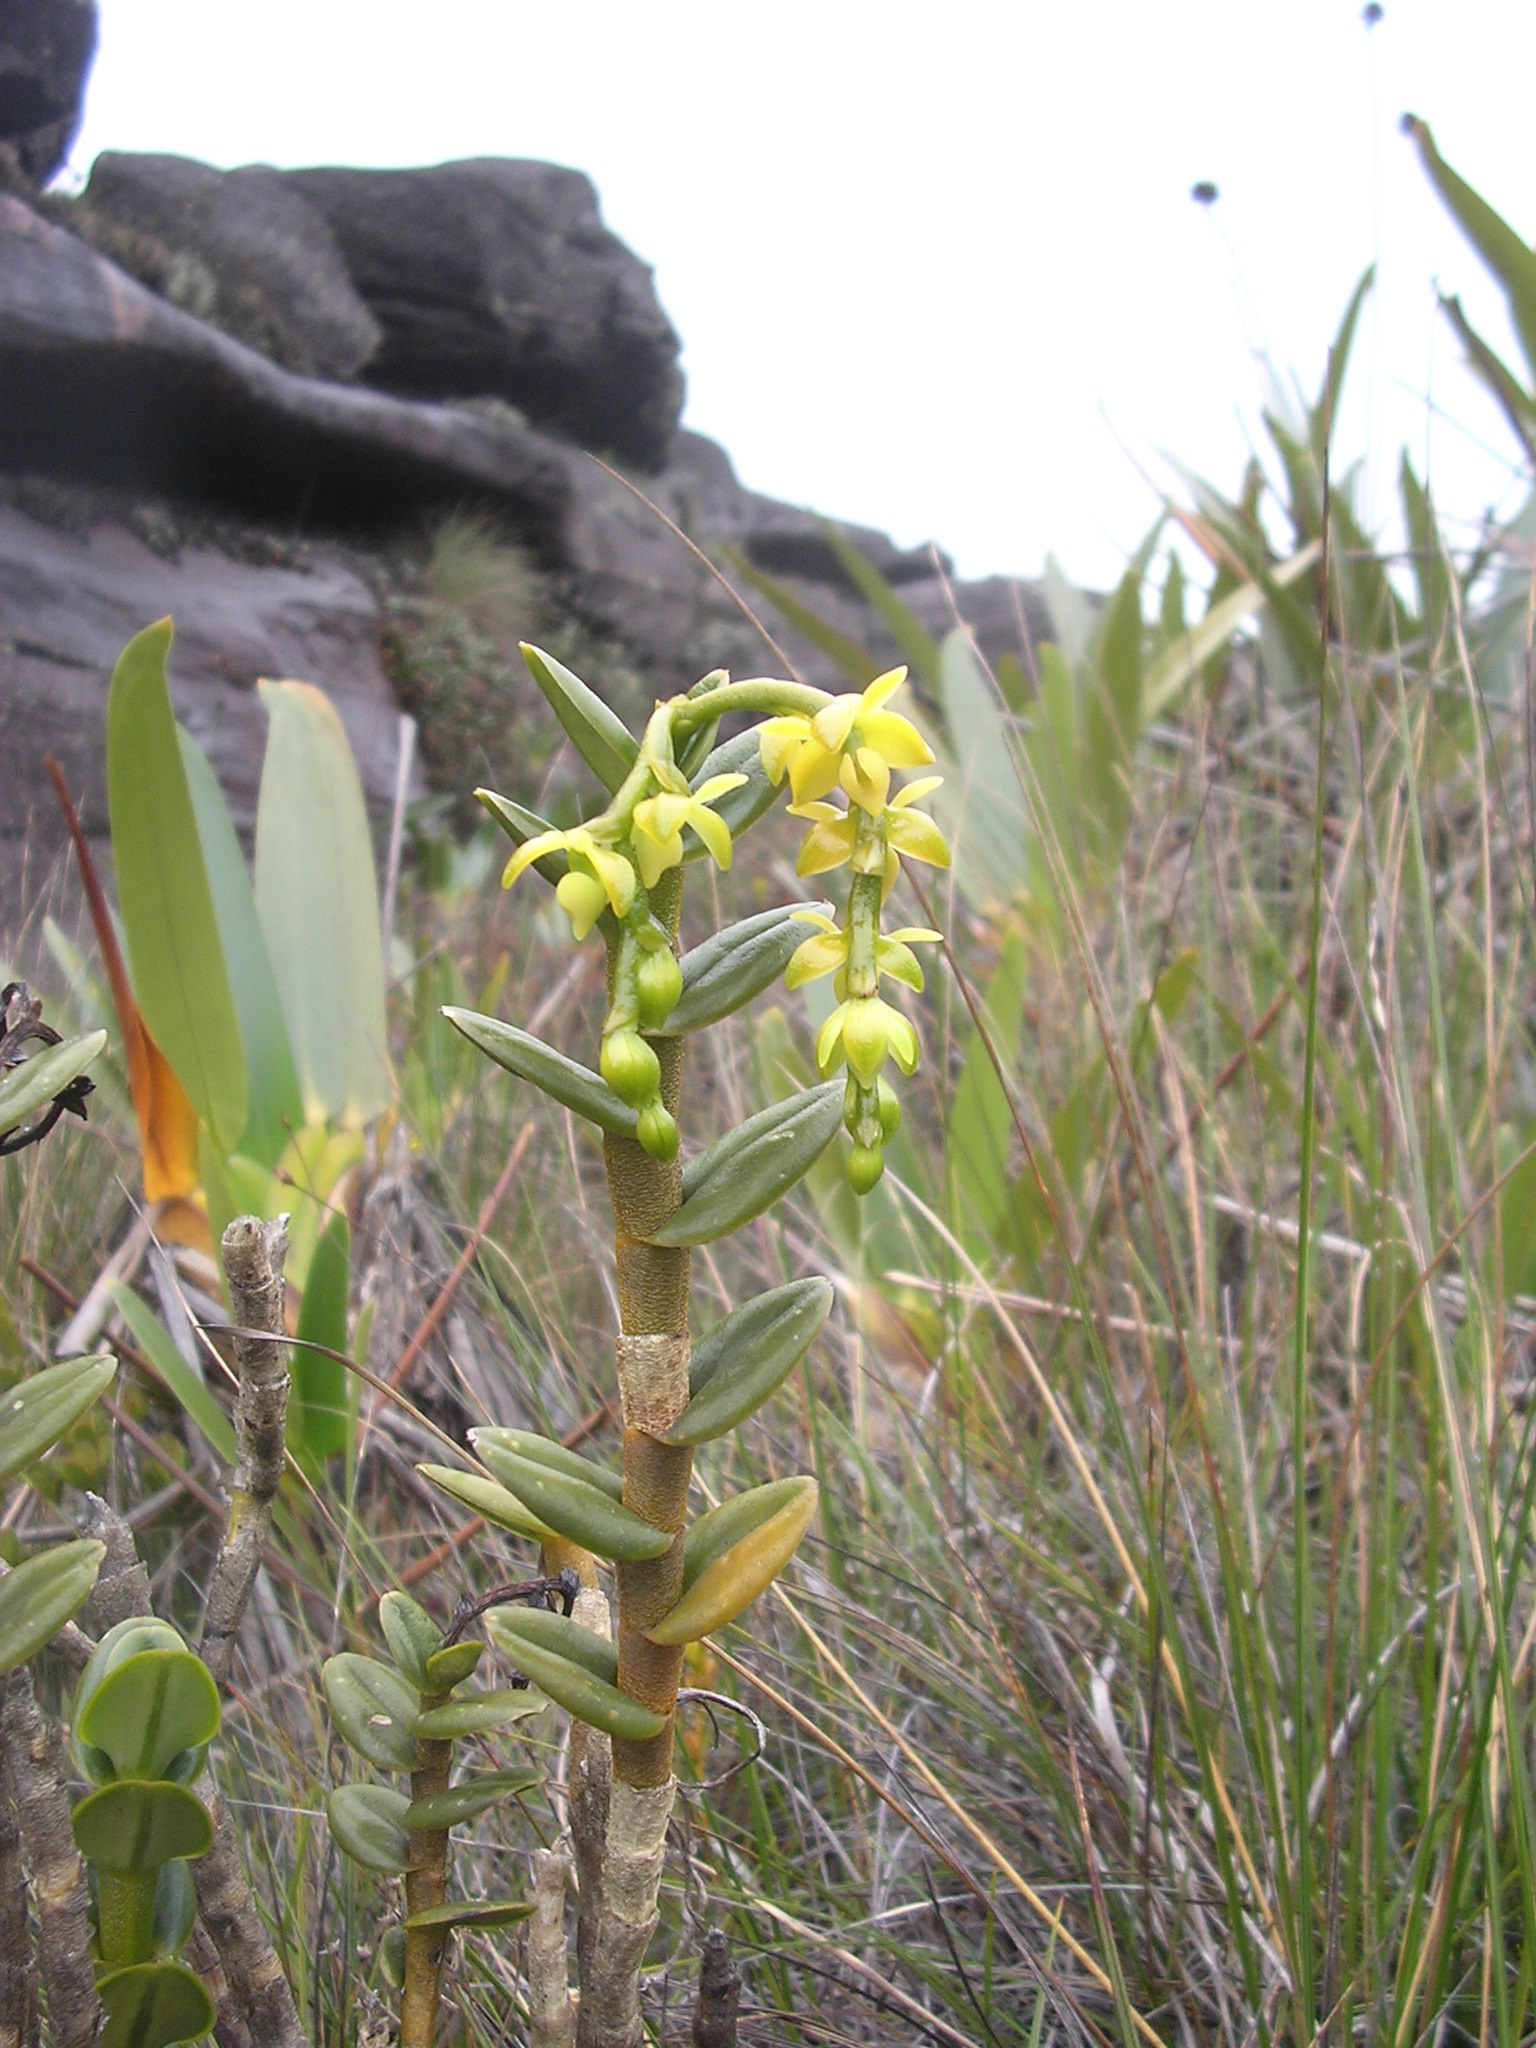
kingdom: Plantae
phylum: Tracheophyta
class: Liliopsida
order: Asparagales
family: Orchidaceae
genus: Epidendrum
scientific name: Epidendrum alsum
